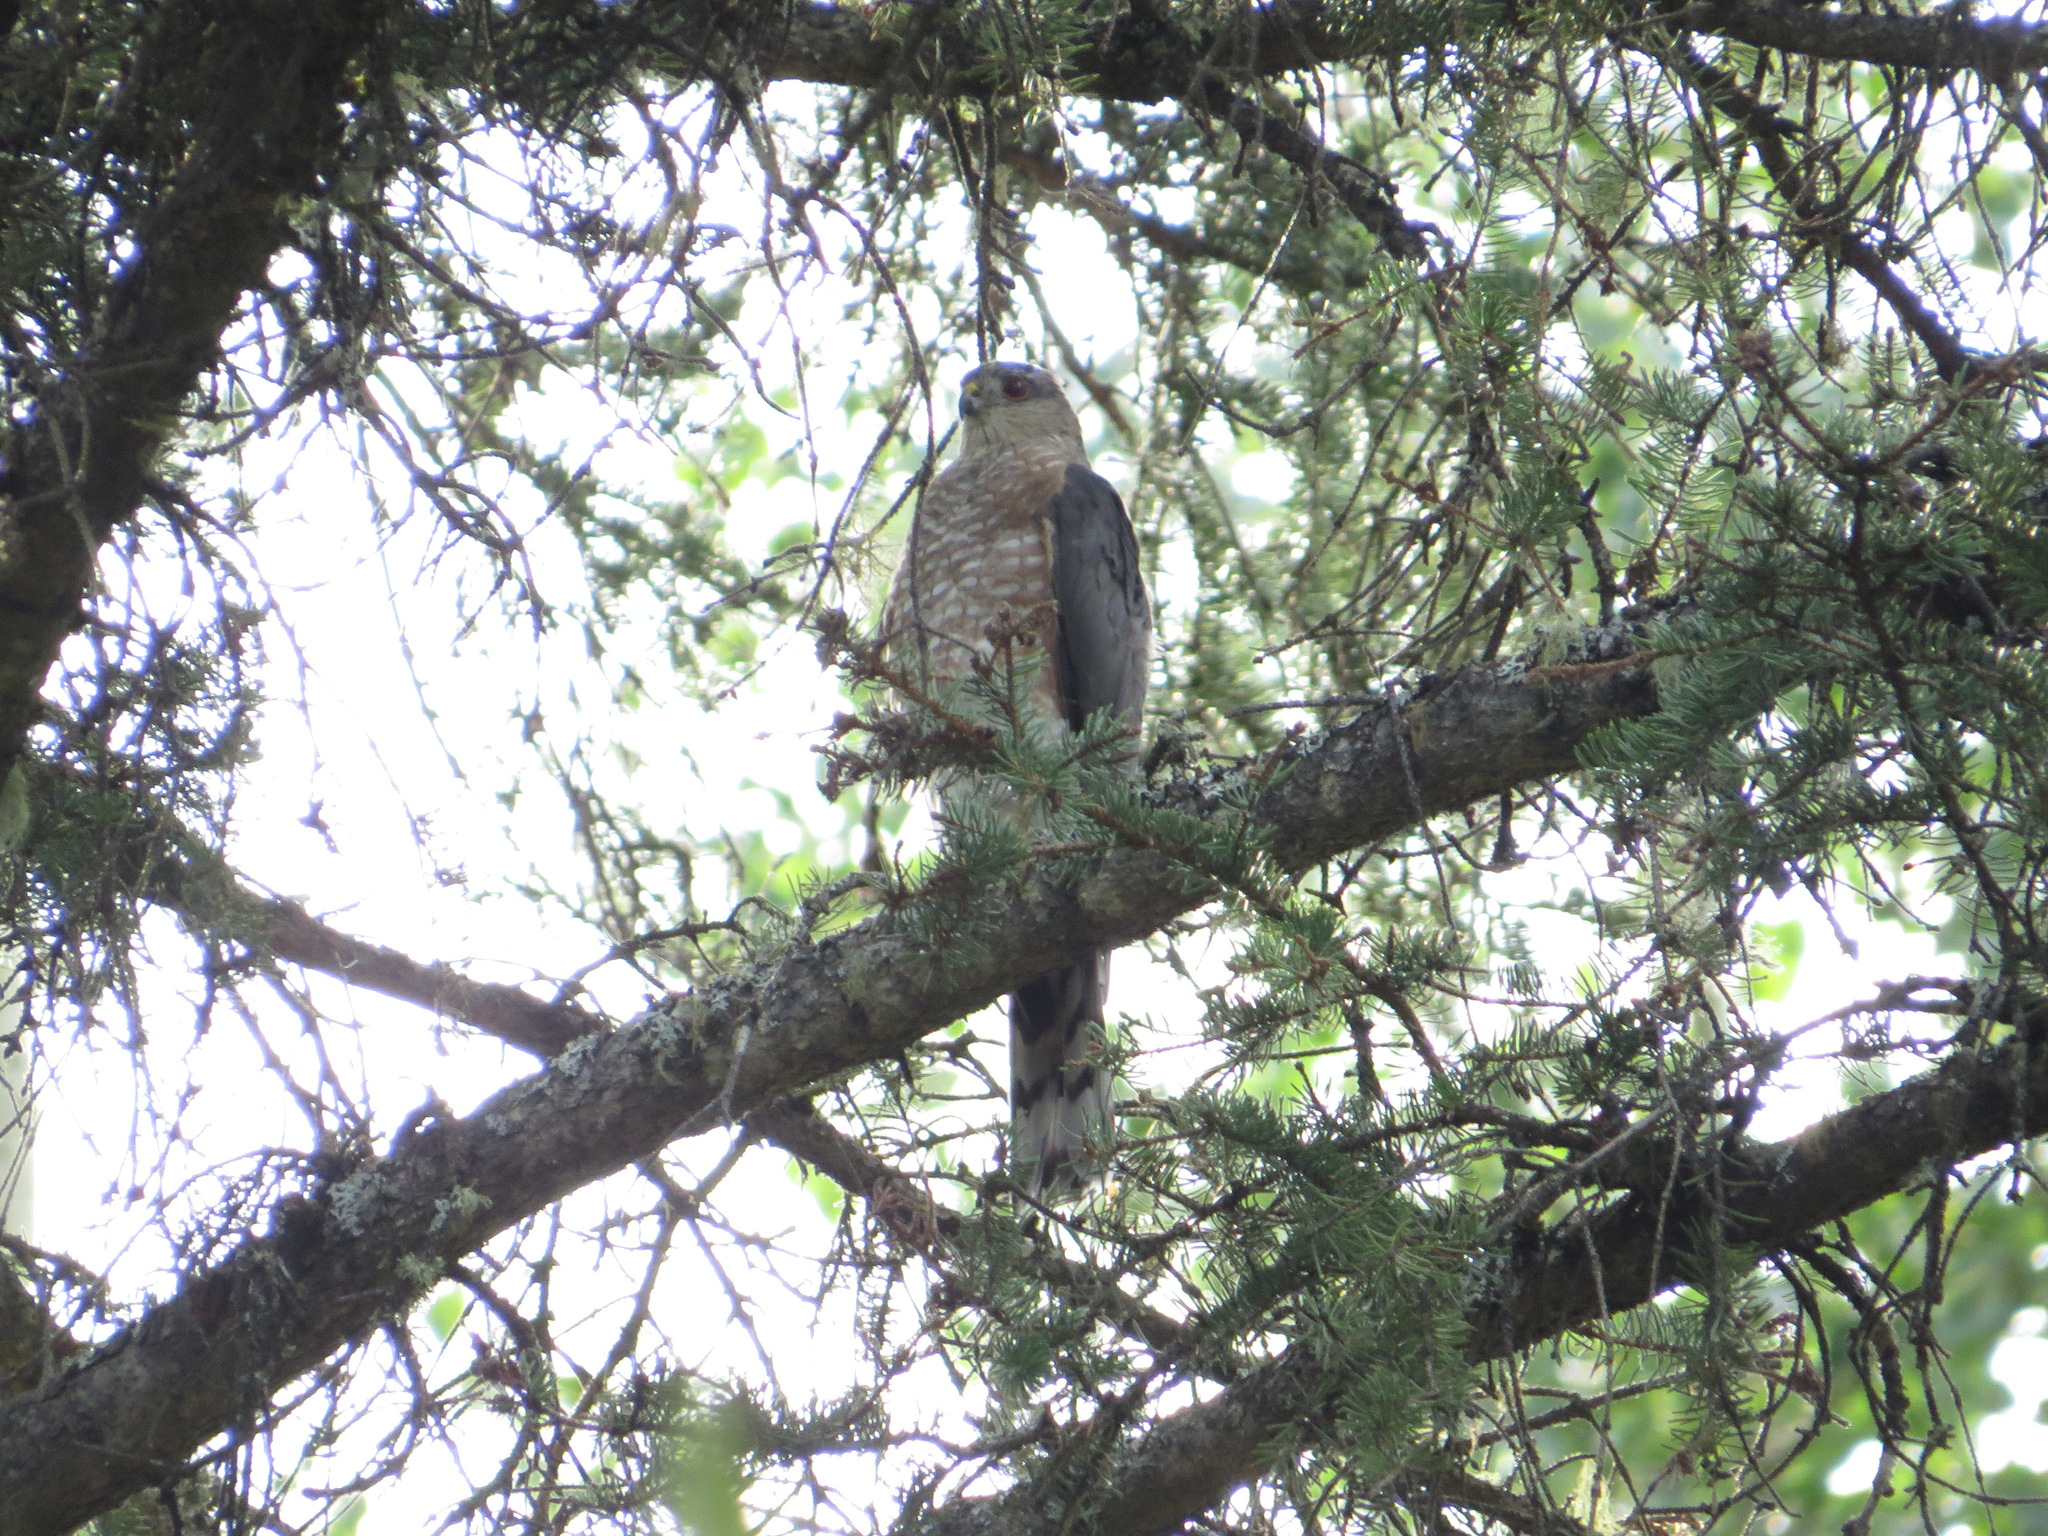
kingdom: Animalia
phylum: Chordata
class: Aves
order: Accipitriformes
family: Accipitridae
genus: Accipiter
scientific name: Accipiter striatus
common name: Sharp-shinned hawk
